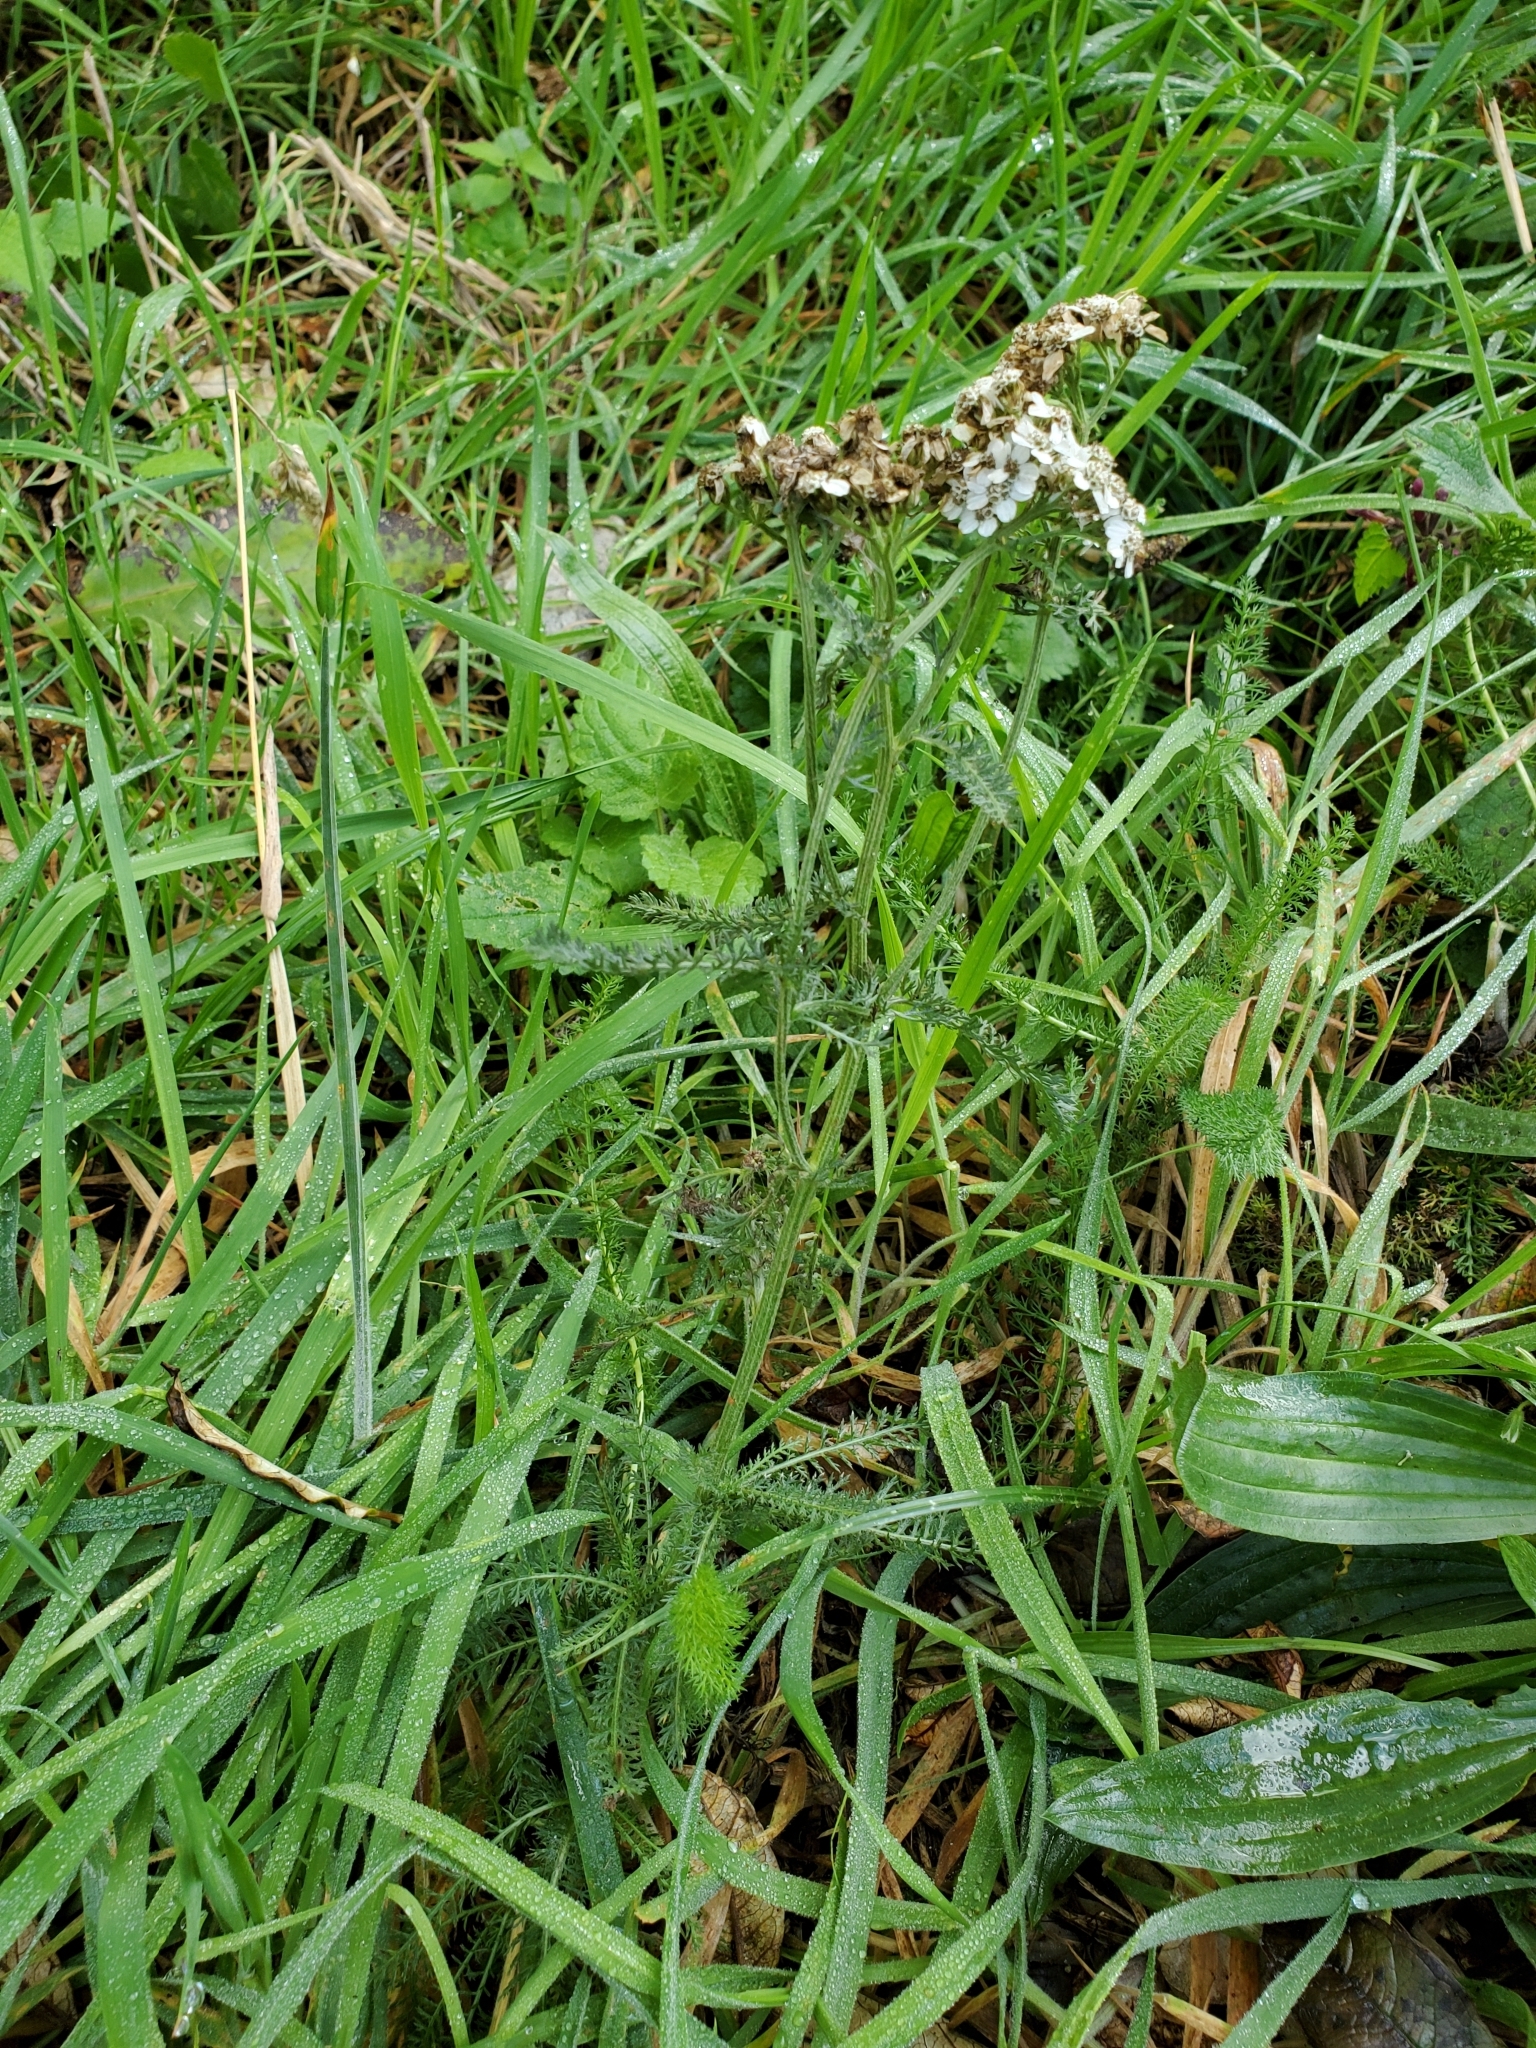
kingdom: Plantae
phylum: Tracheophyta
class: Magnoliopsida
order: Asterales
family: Asteraceae
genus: Achillea
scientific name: Achillea millefolium
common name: Yarrow
